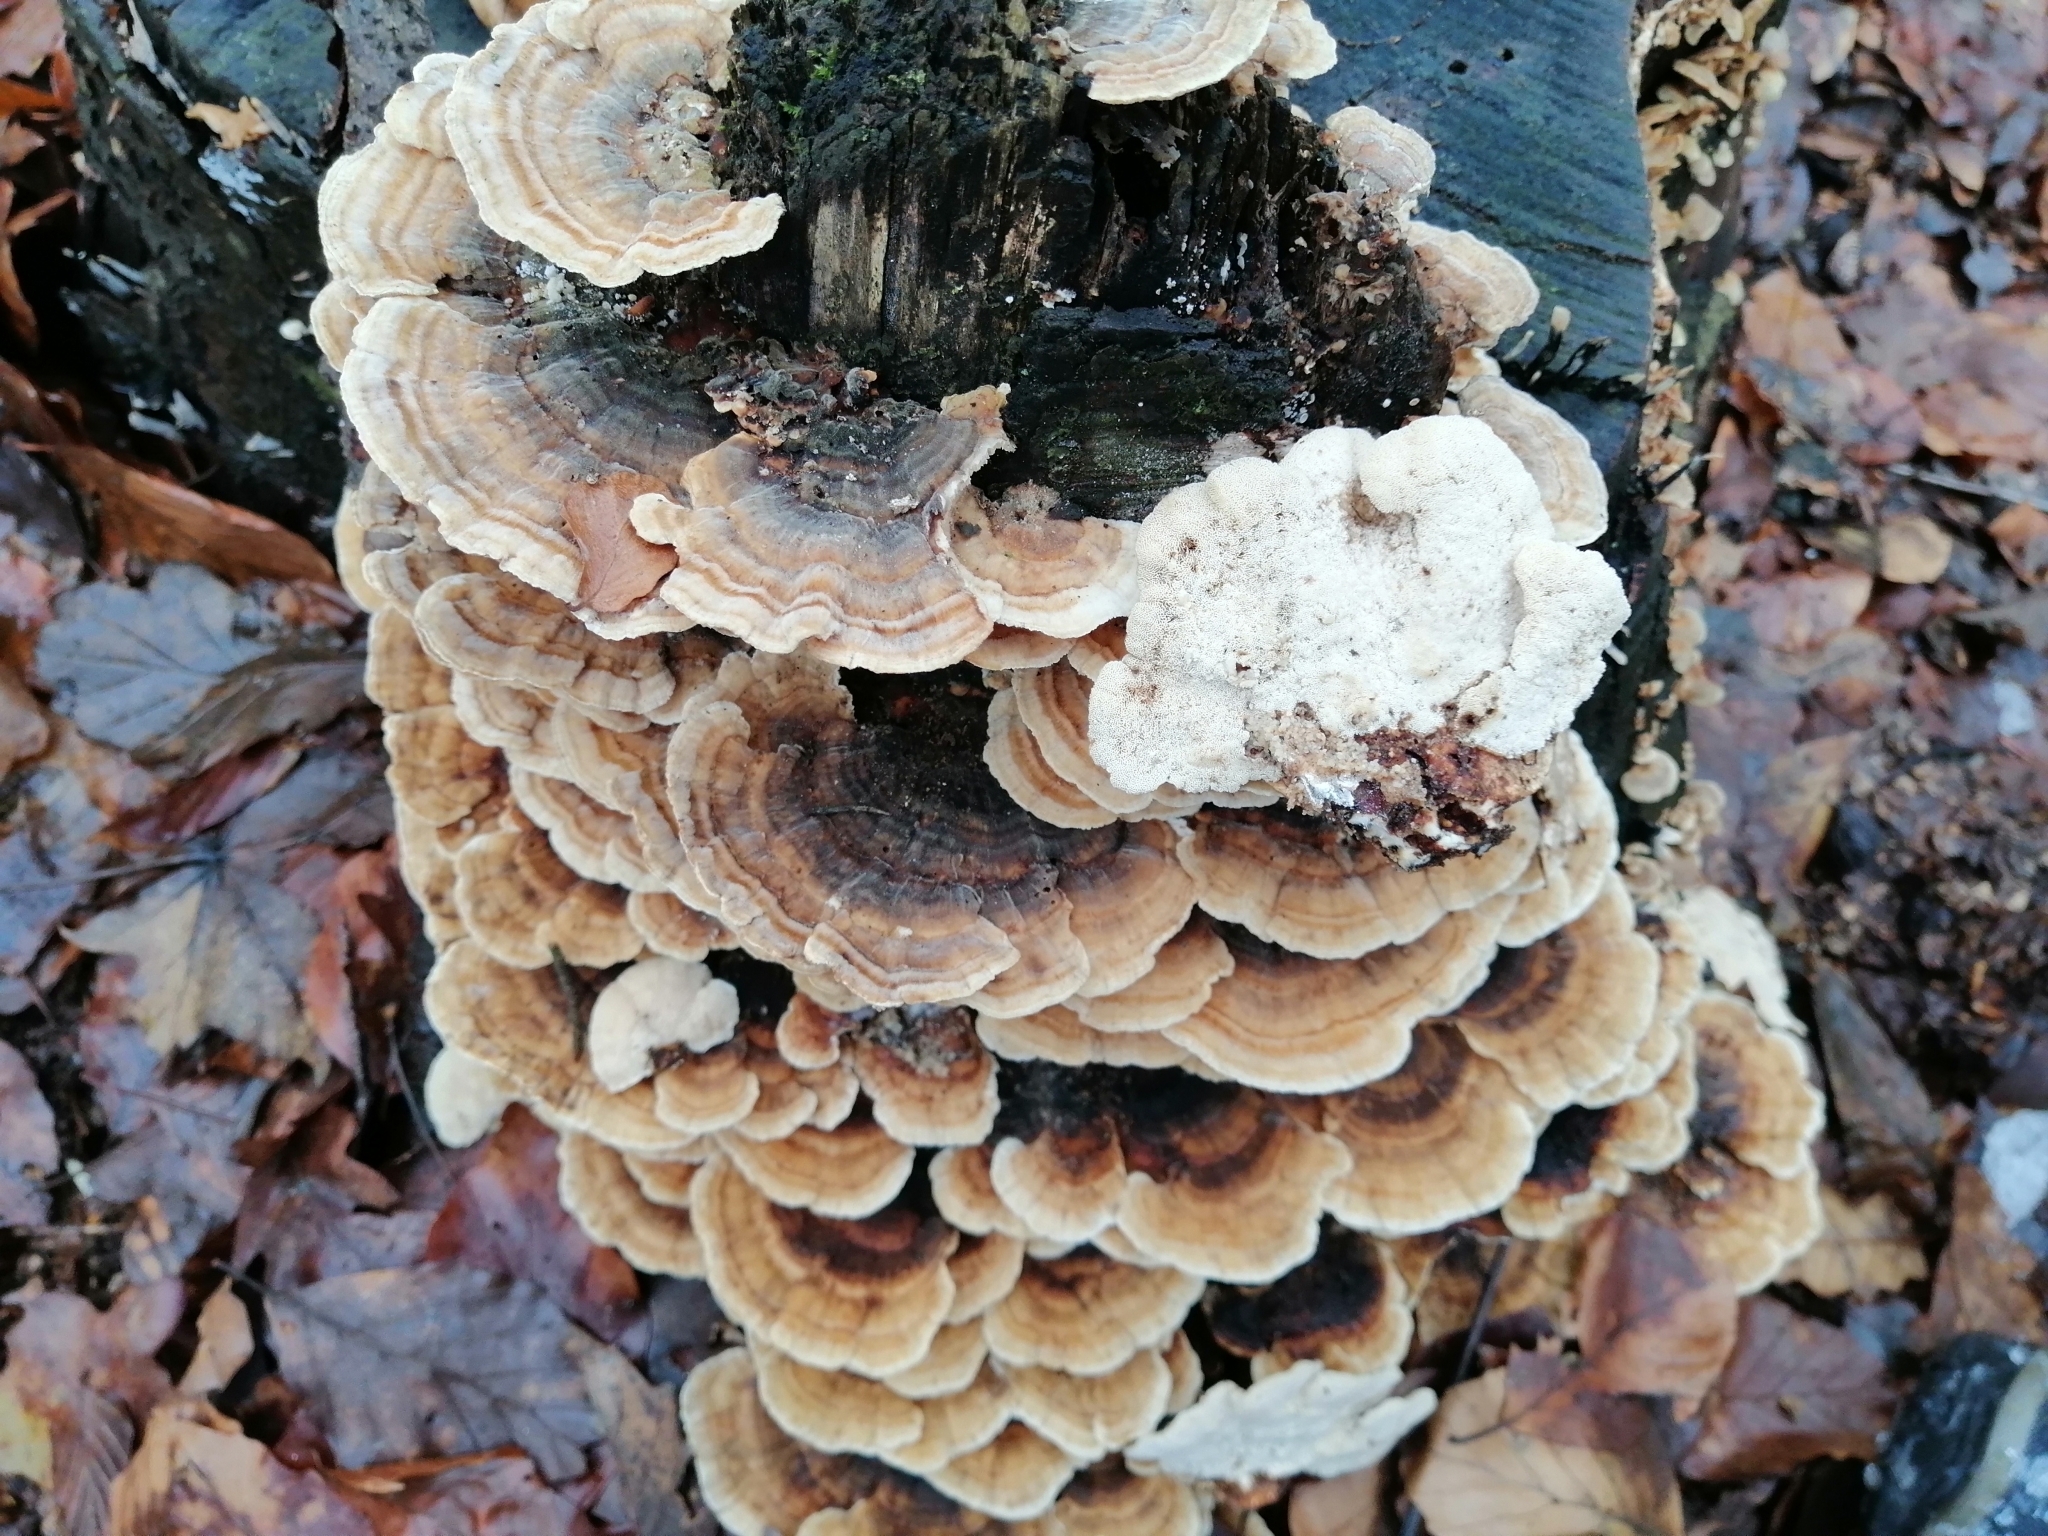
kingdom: Fungi
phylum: Basidiomycota
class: Agaricomycetes
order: Polyporales
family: Polyporaceae
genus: Trametes
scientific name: Trametes versicolor
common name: Turkeytail
